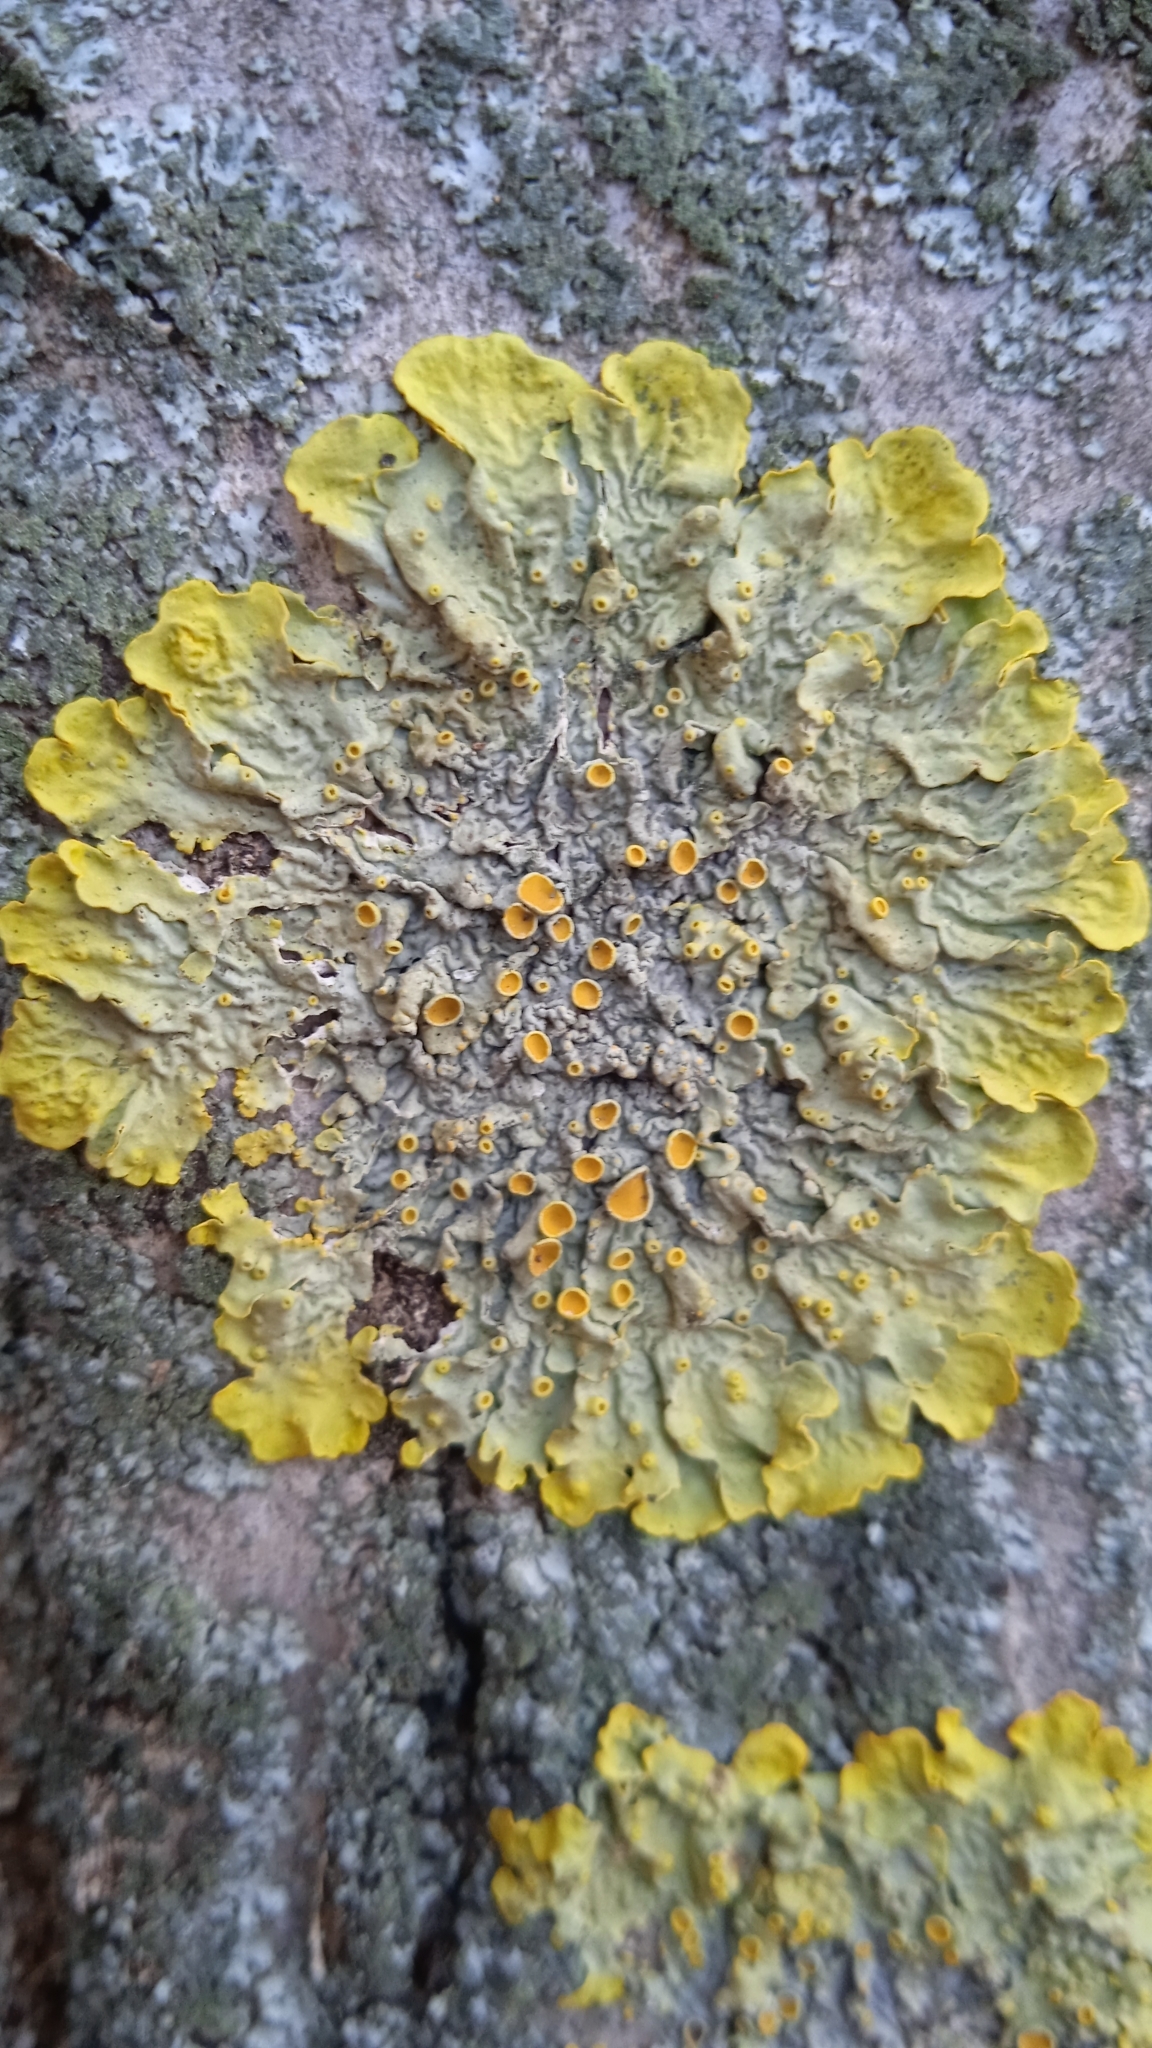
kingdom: Fungi
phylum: Ascomycota
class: Lecanoromycetes
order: Teloschistales
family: Teloschistaceae
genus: Xanthoria
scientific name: Xanthoria parietina
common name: Common orange lichen
